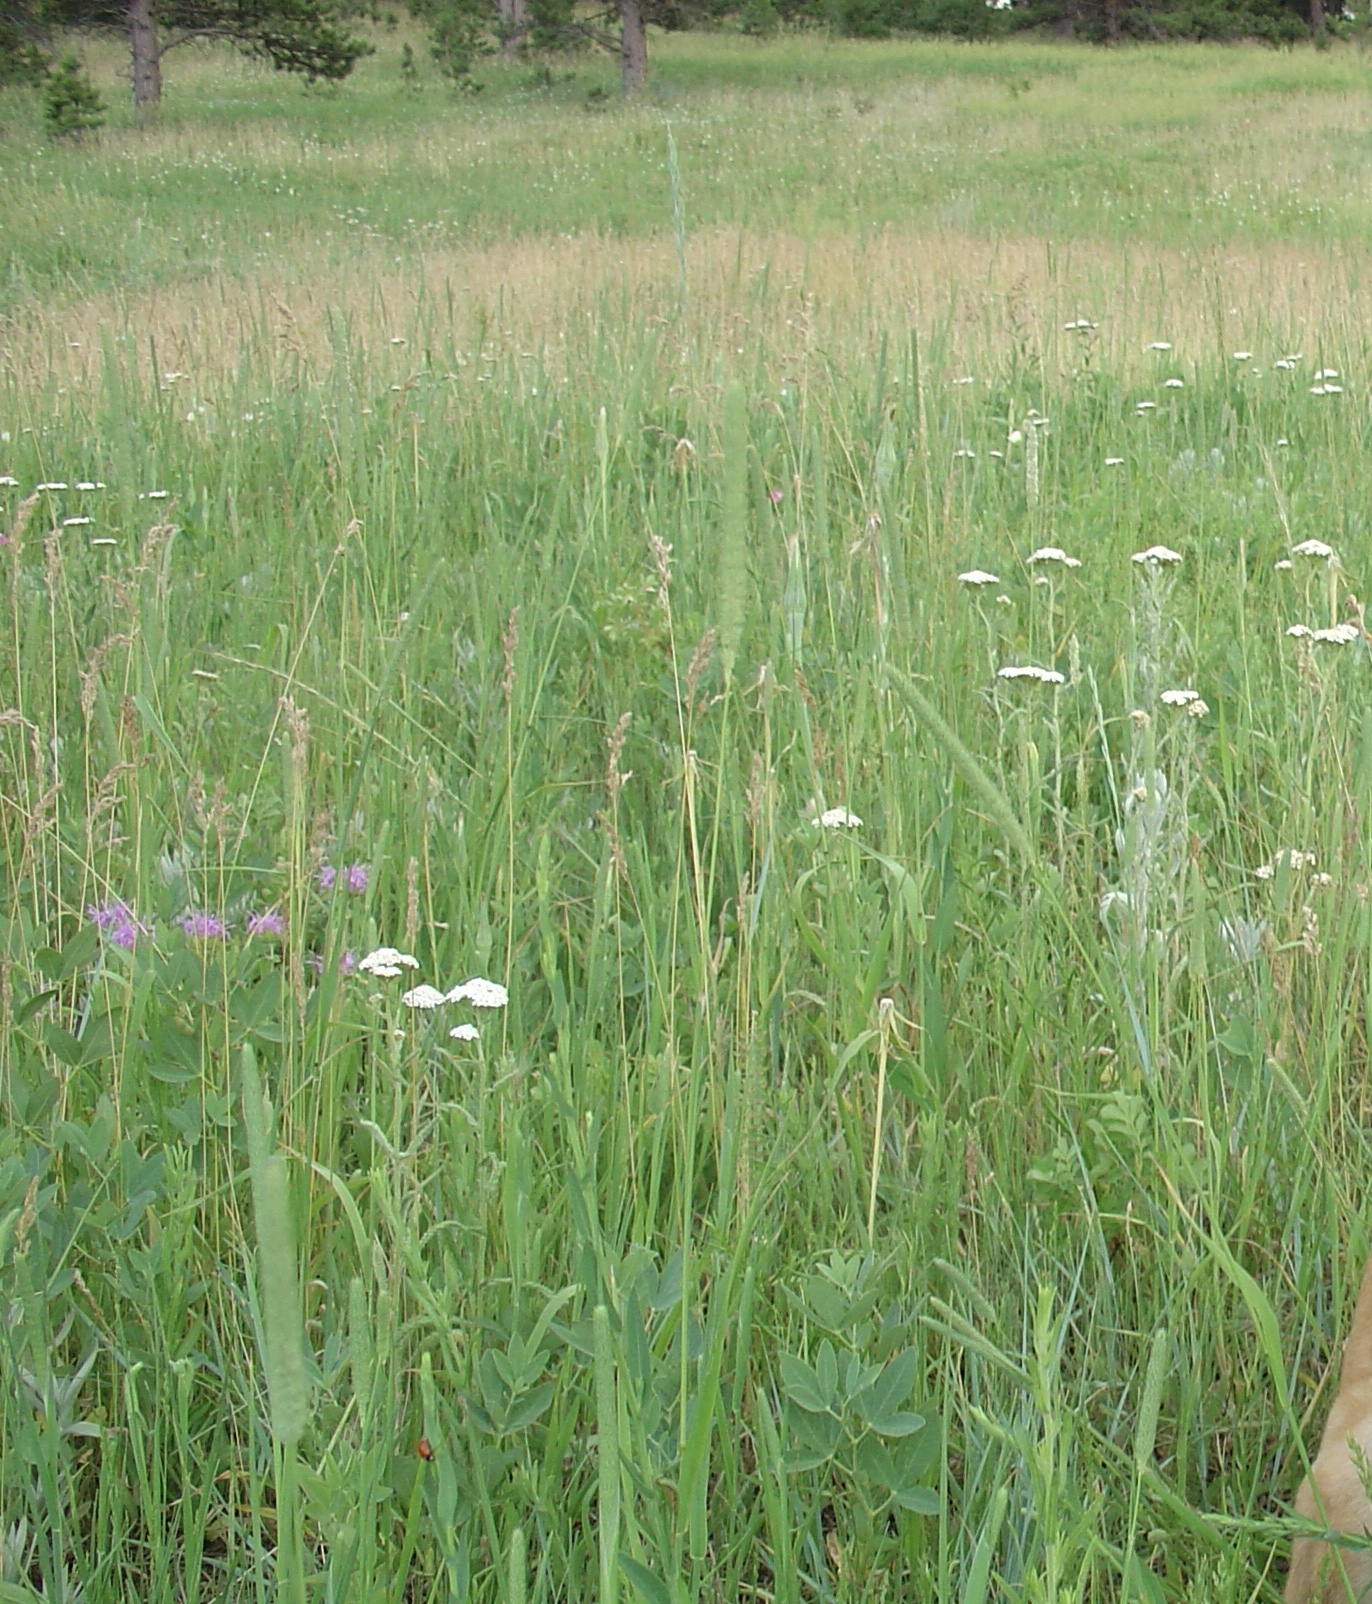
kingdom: Plantae
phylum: Tracheophyta
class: Magnoliopsida
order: Asterales
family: Asteraceae
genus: Achillea
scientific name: Achillea millefolium
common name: Yarrow
